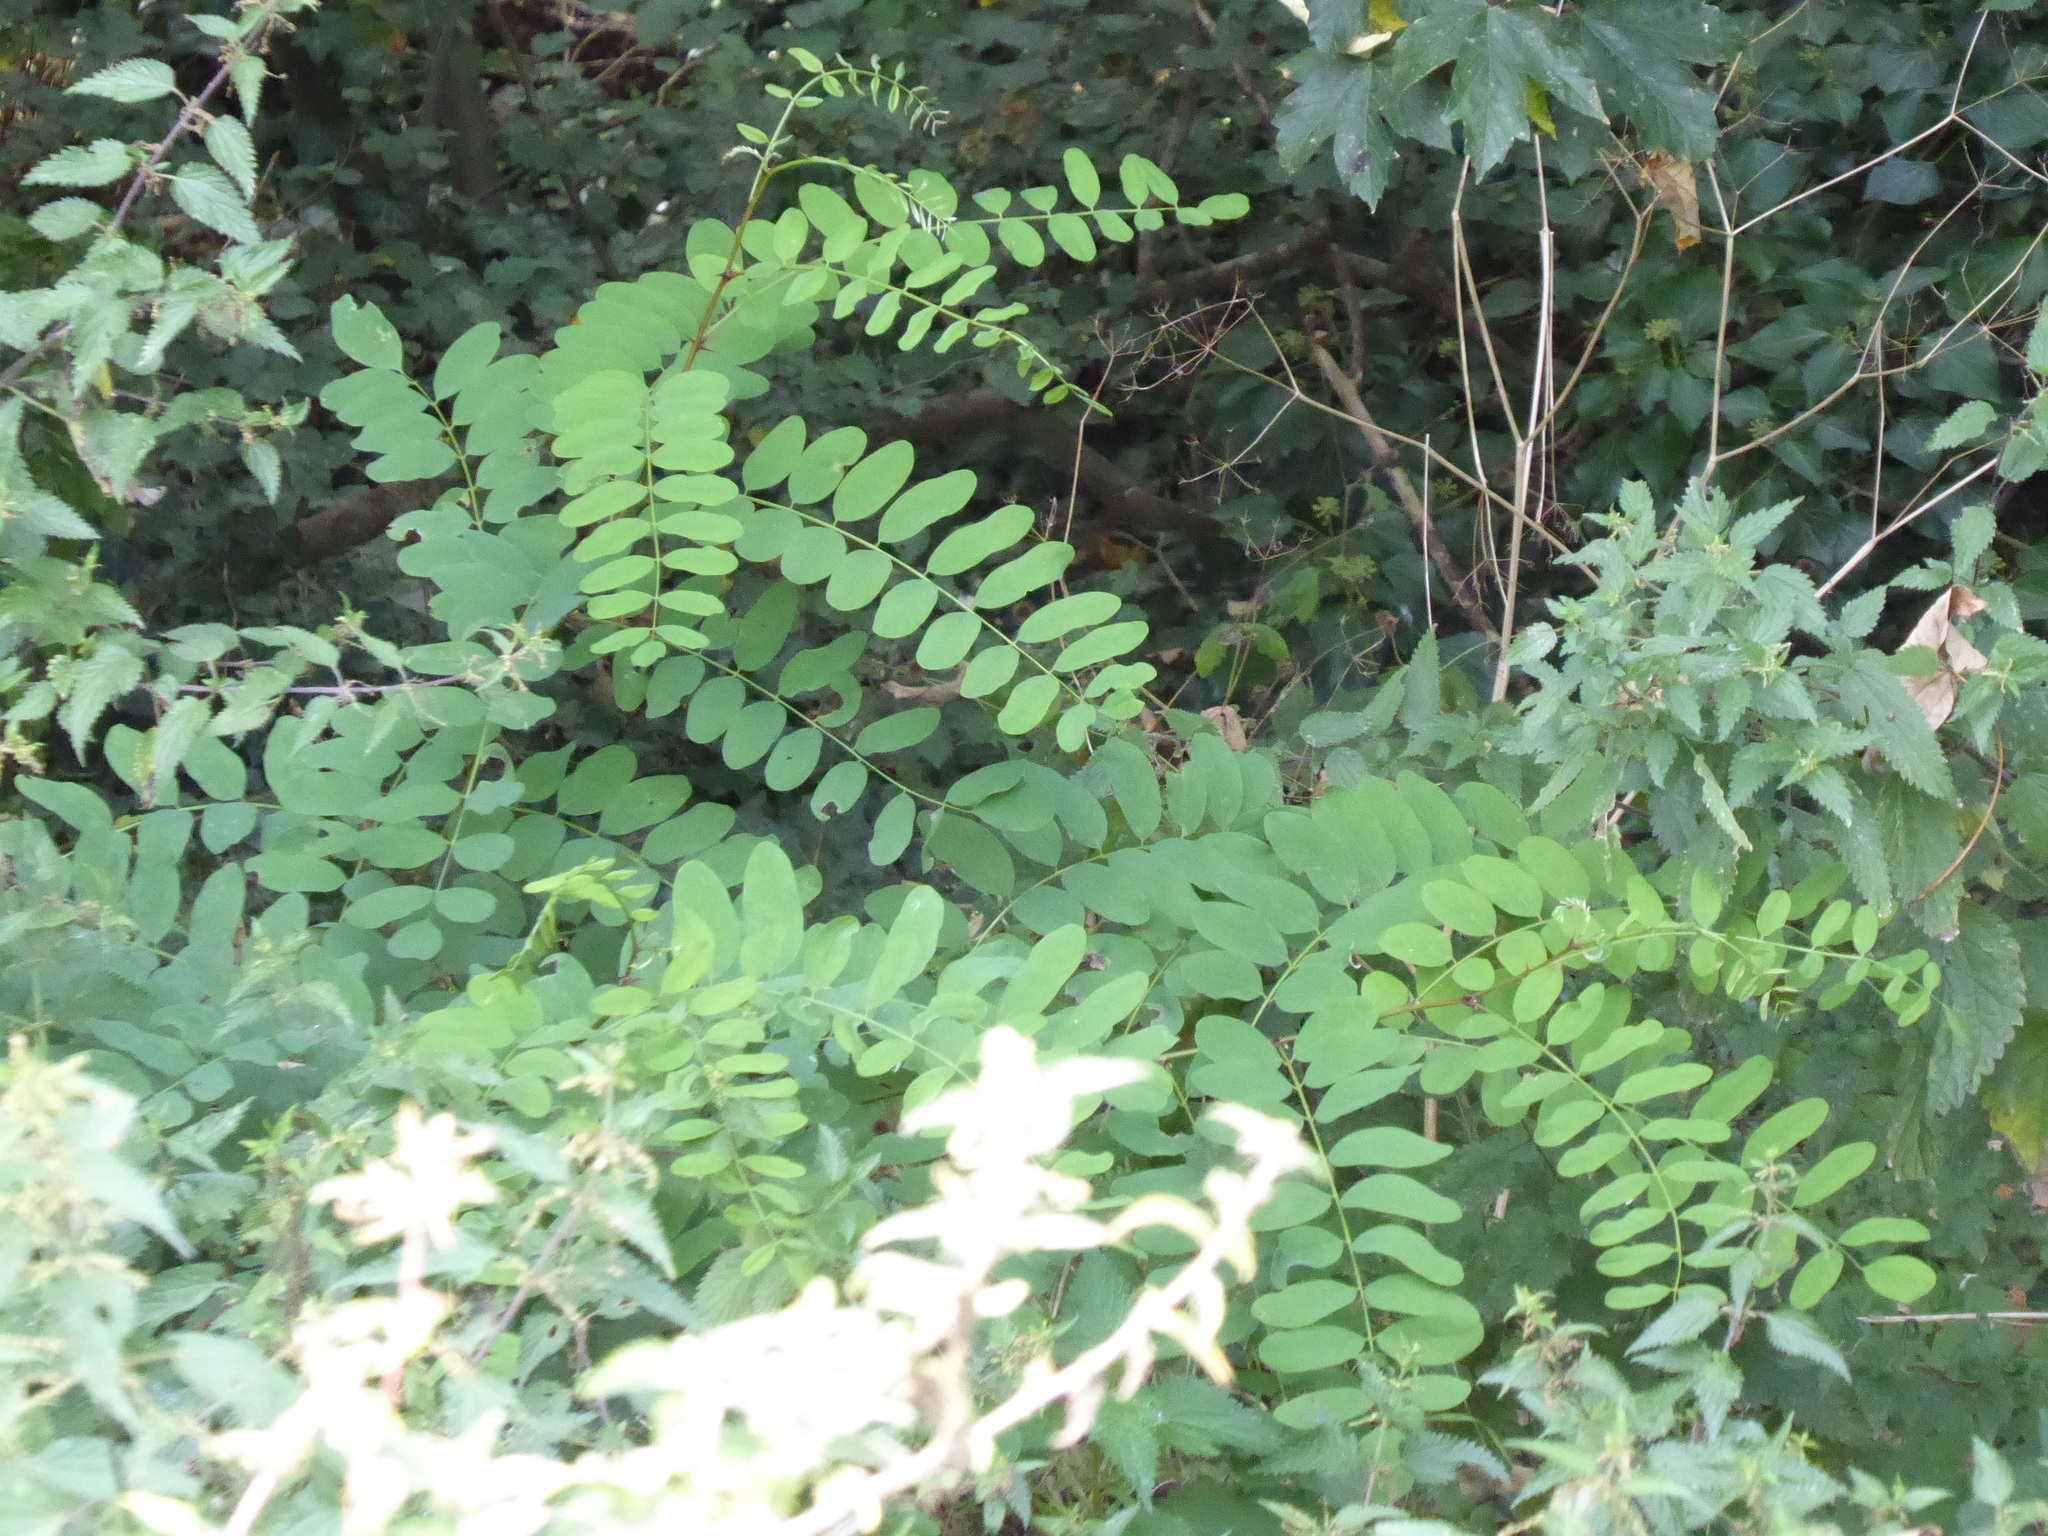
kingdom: Plantae
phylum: Tracheophyta
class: Magnoliopsida
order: Fabales
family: Fabaceae
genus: Robinia
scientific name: Robinia pseudoacacia
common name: Black locust
